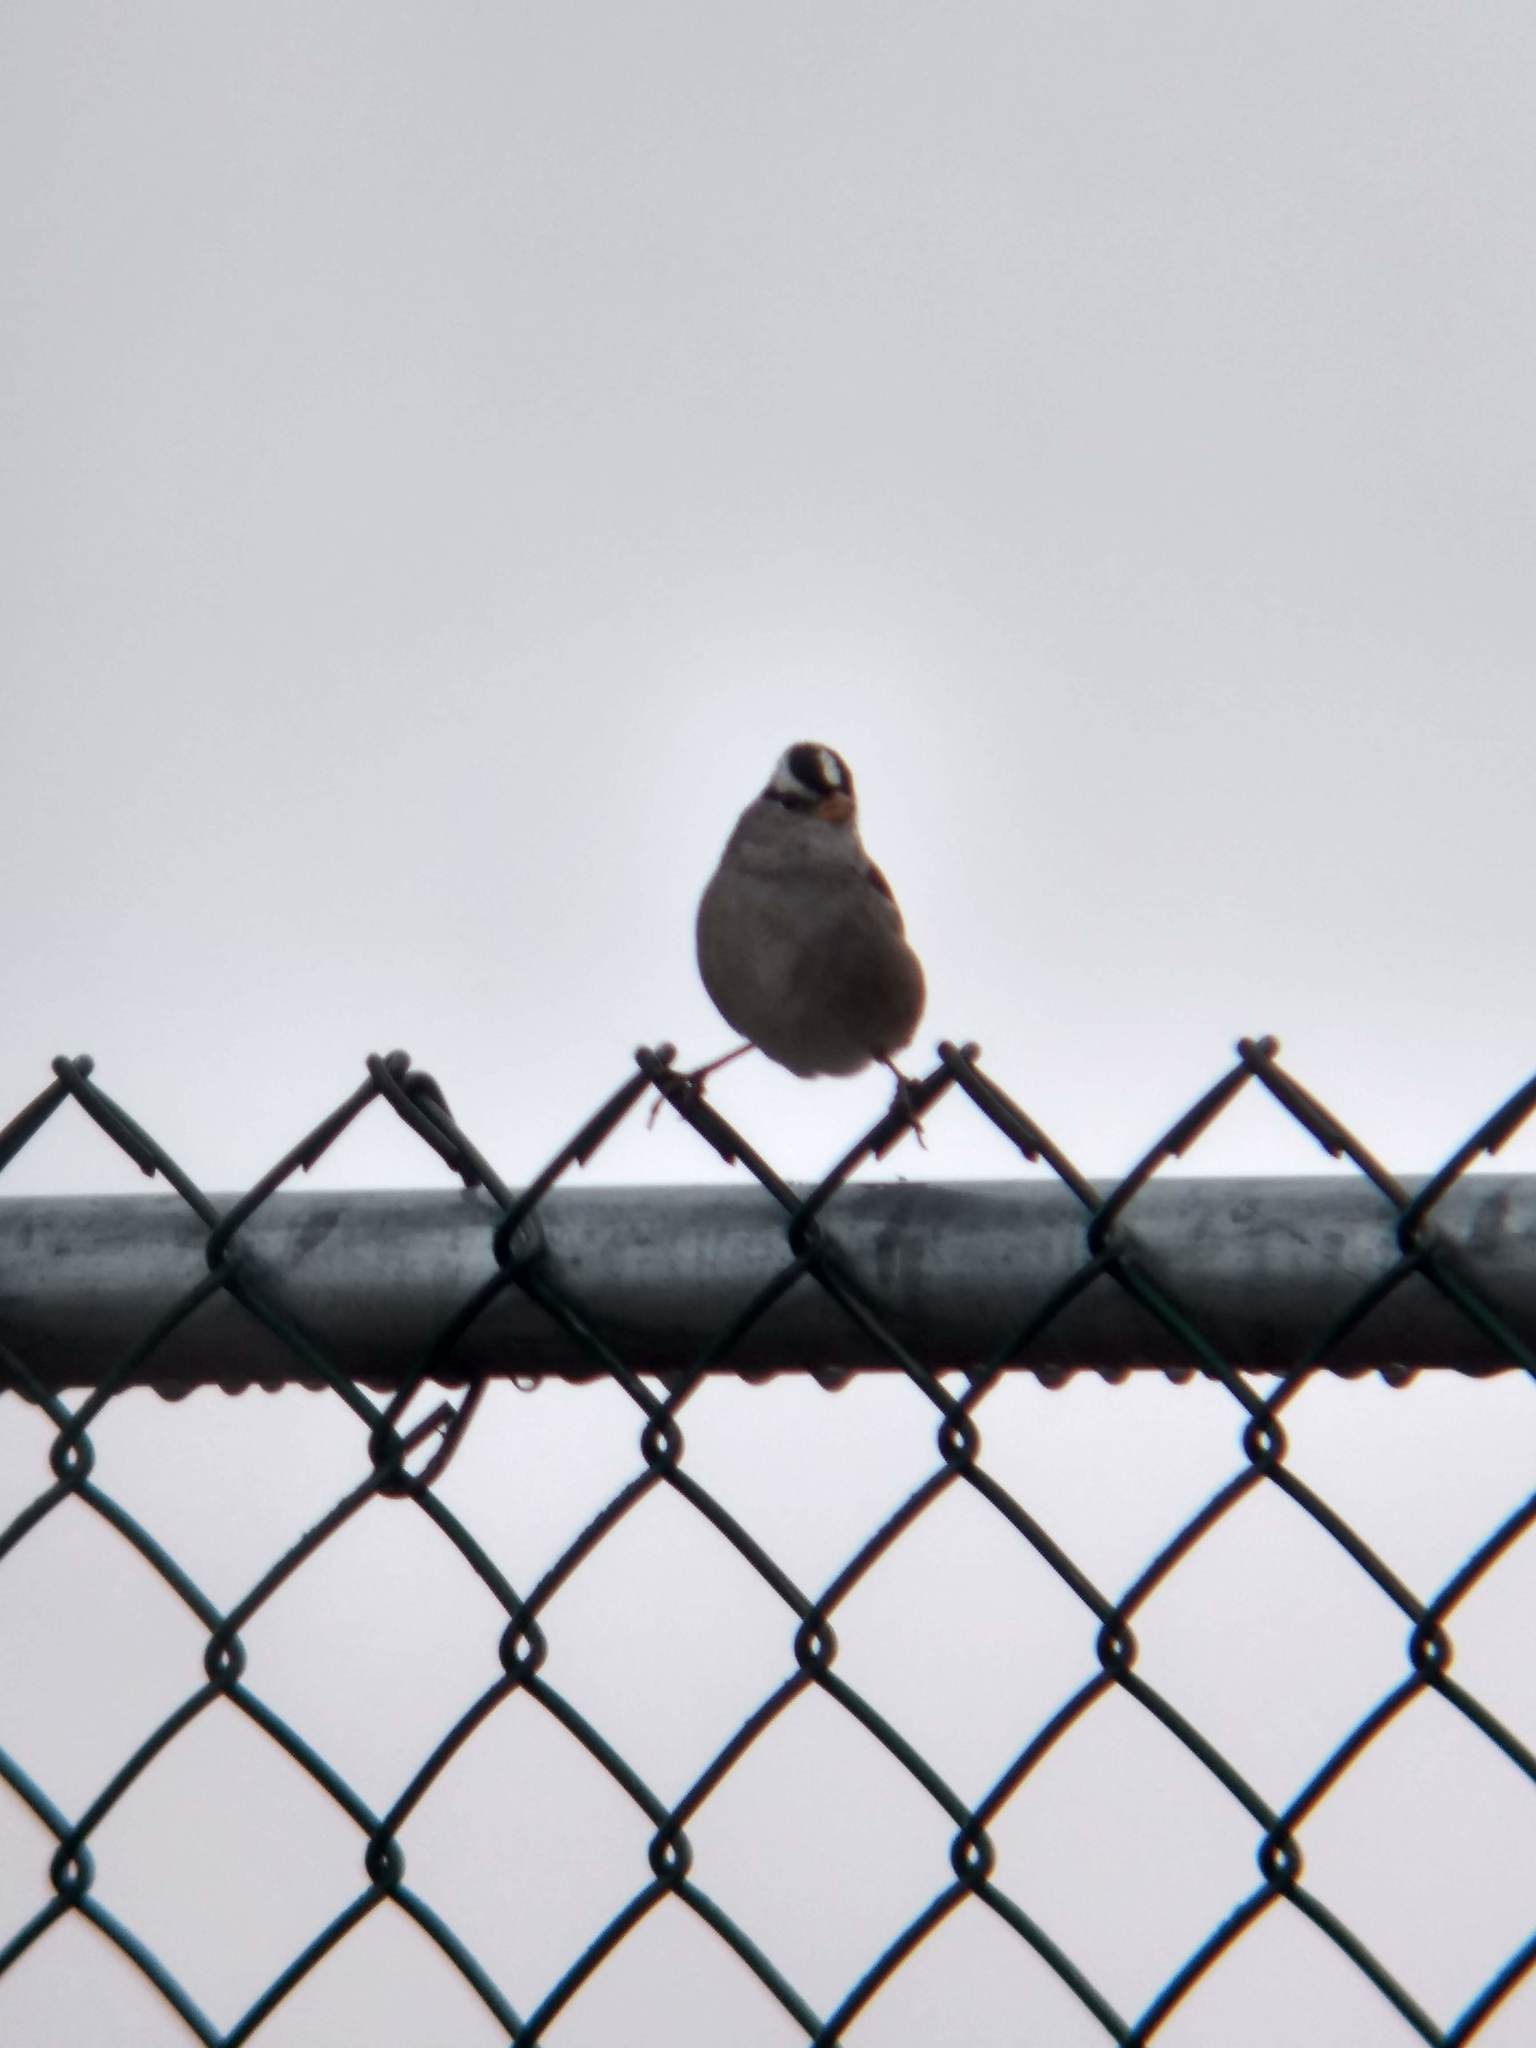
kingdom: Animalia
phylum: Chordata
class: Aves
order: Passeriformes
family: Passerellidae
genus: Zonotrichia
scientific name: Zonotrichia leucophrys
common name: White-crowned sparrow
